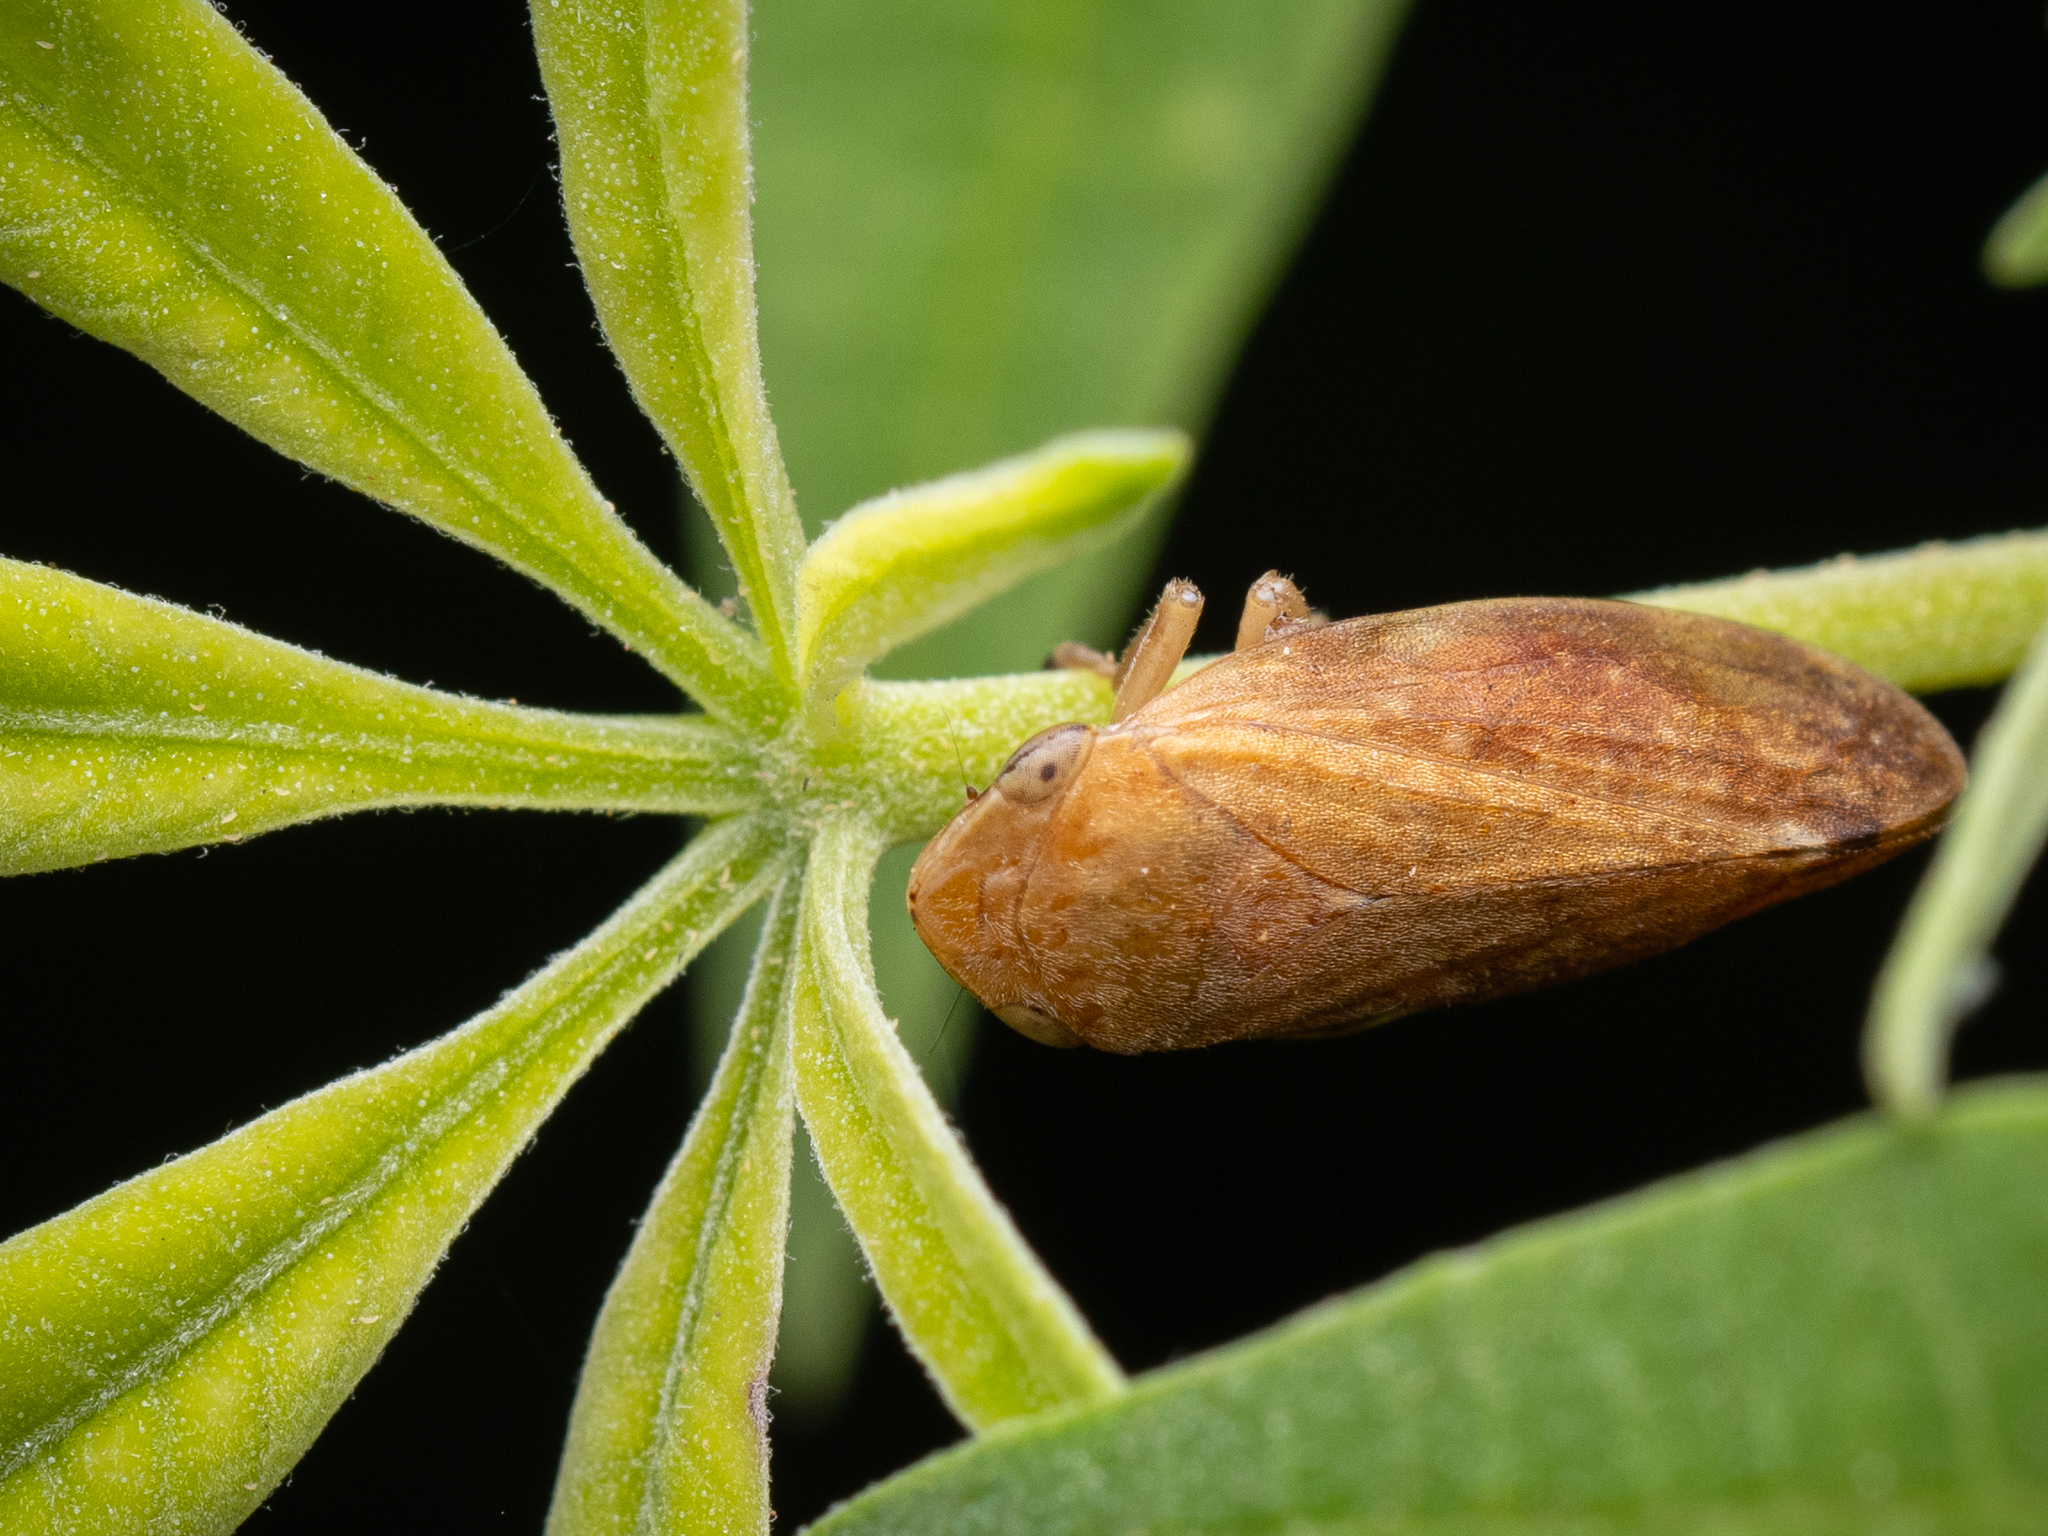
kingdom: Animalia
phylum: Arthropoda
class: Insecta
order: Hemiptera
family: Aphrophoridae
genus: Philaenus
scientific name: Philaenus spumarius
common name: Meadow spittlebug
